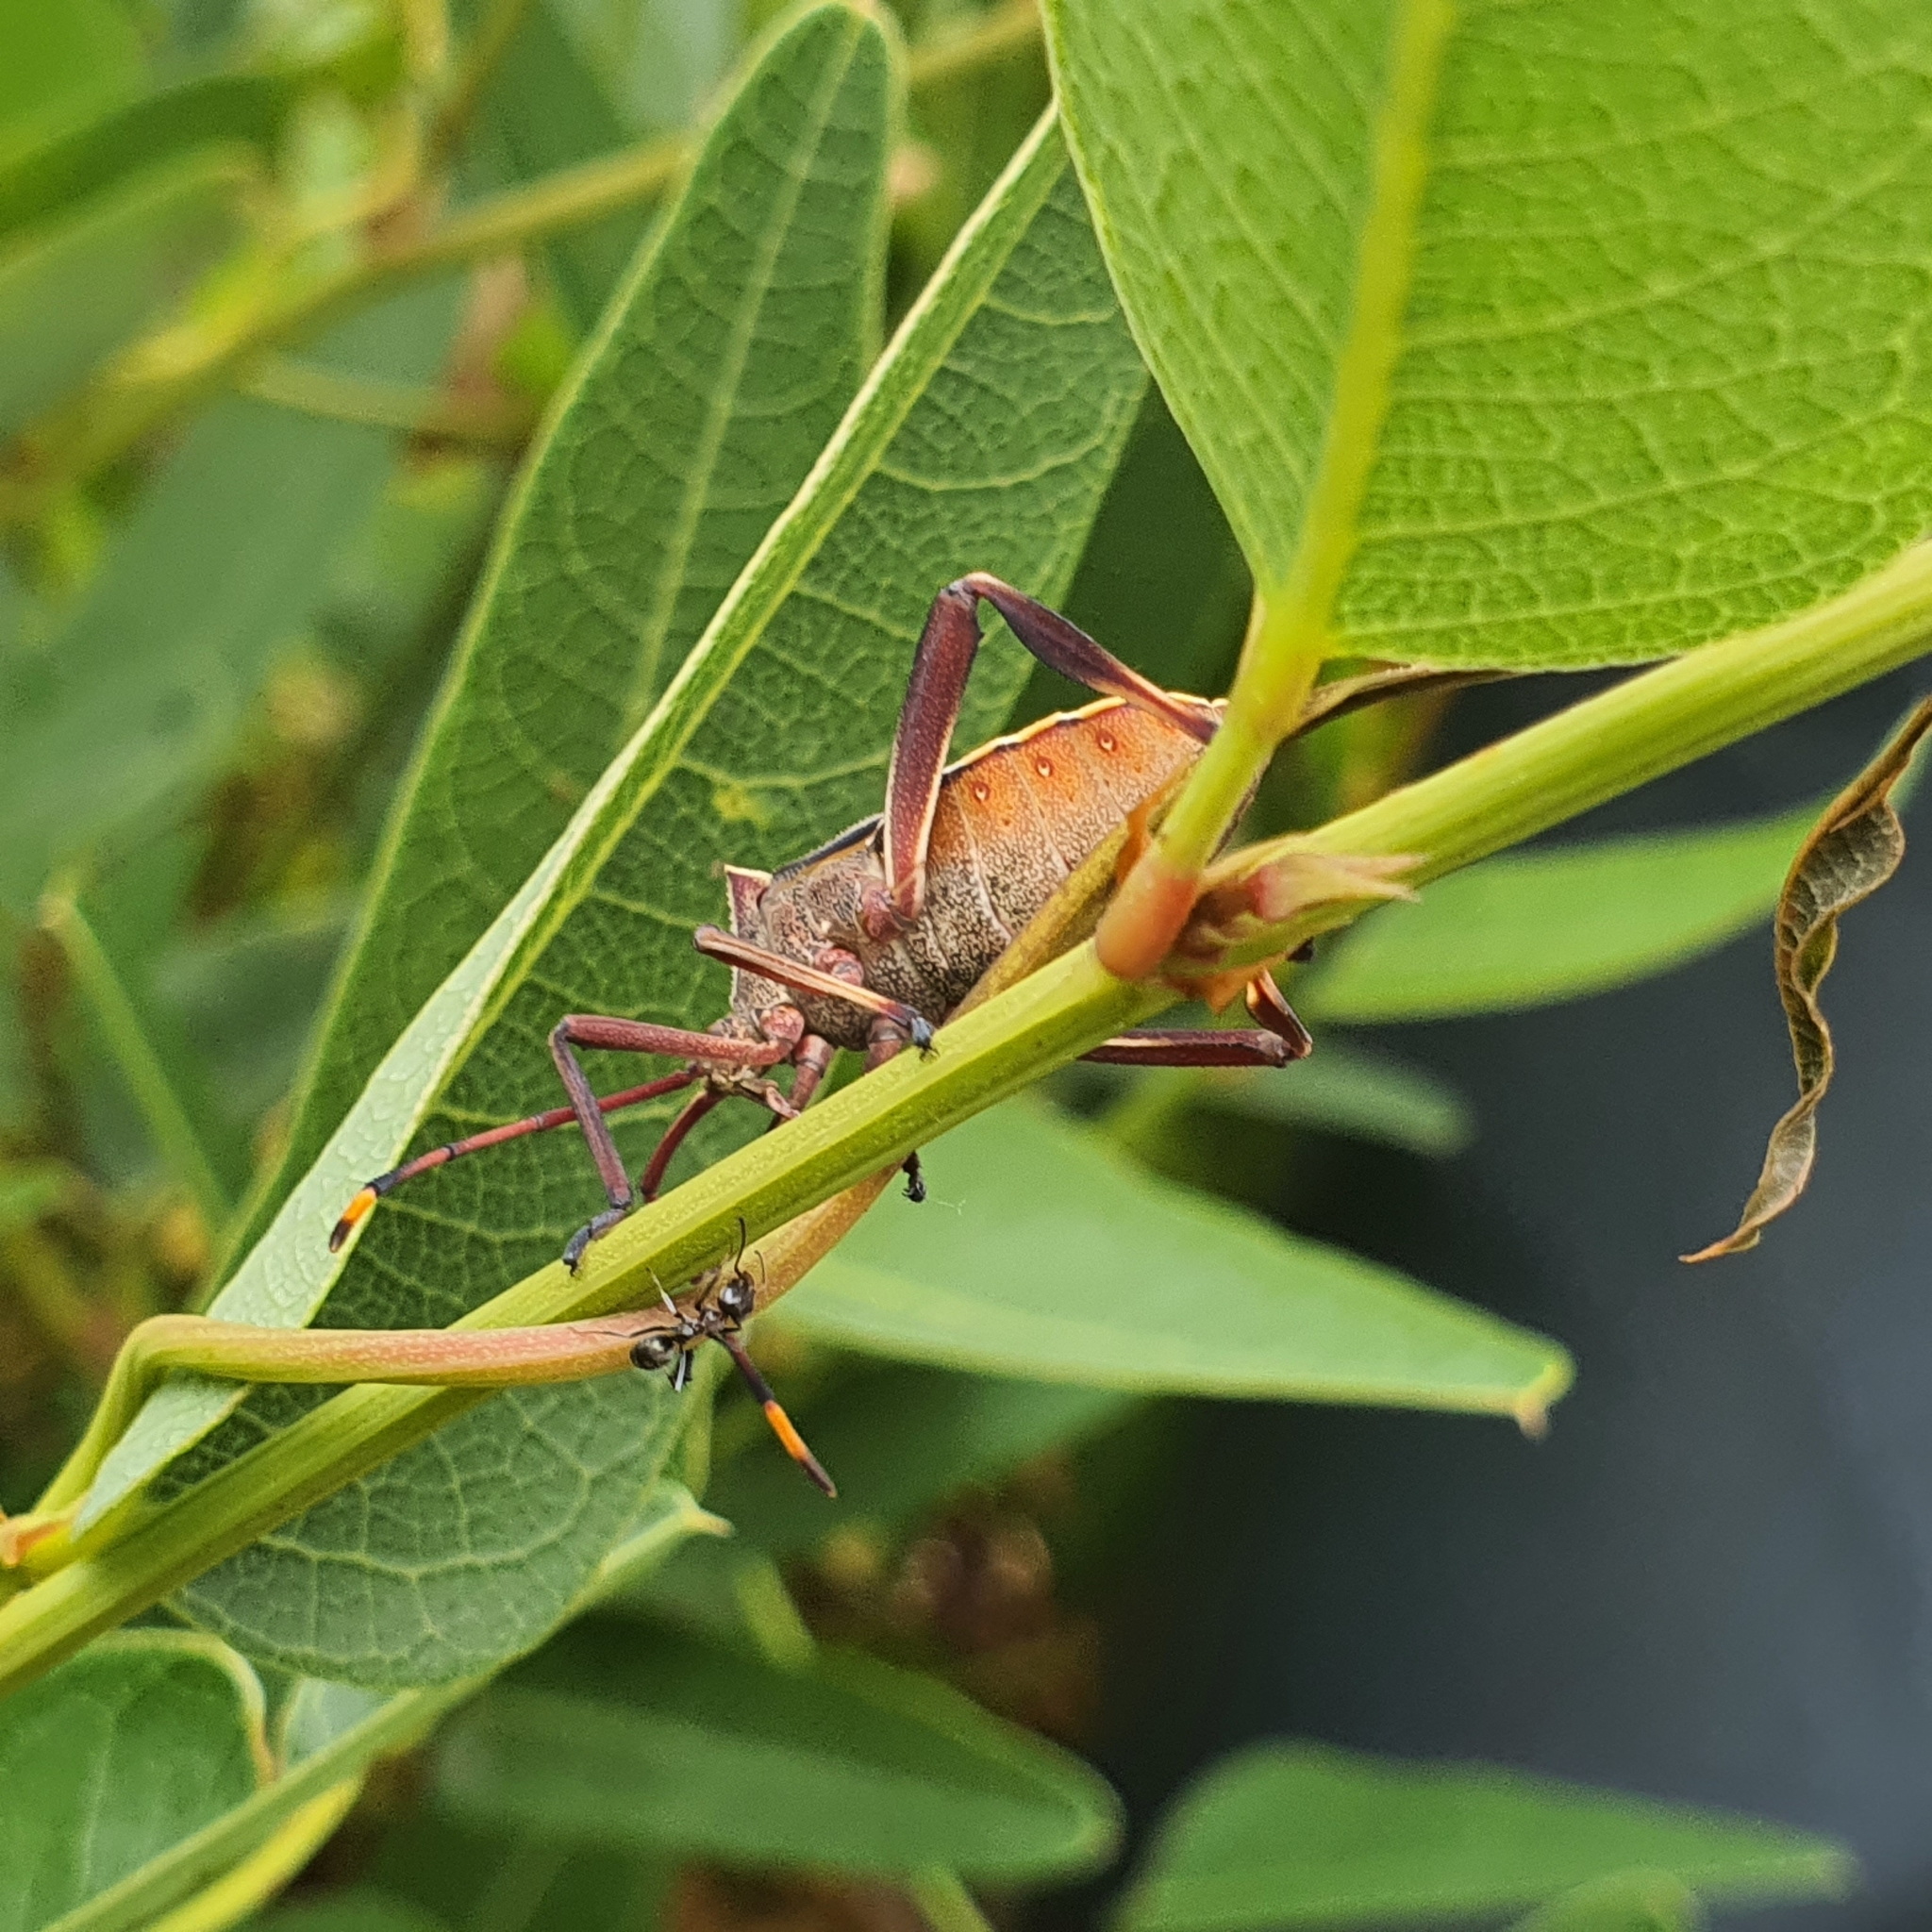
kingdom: Animalia
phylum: Arthropoda
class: Insecta
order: Hemiptera
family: Coreidae
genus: Mictis
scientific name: Mictis profana
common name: Crusader bug
